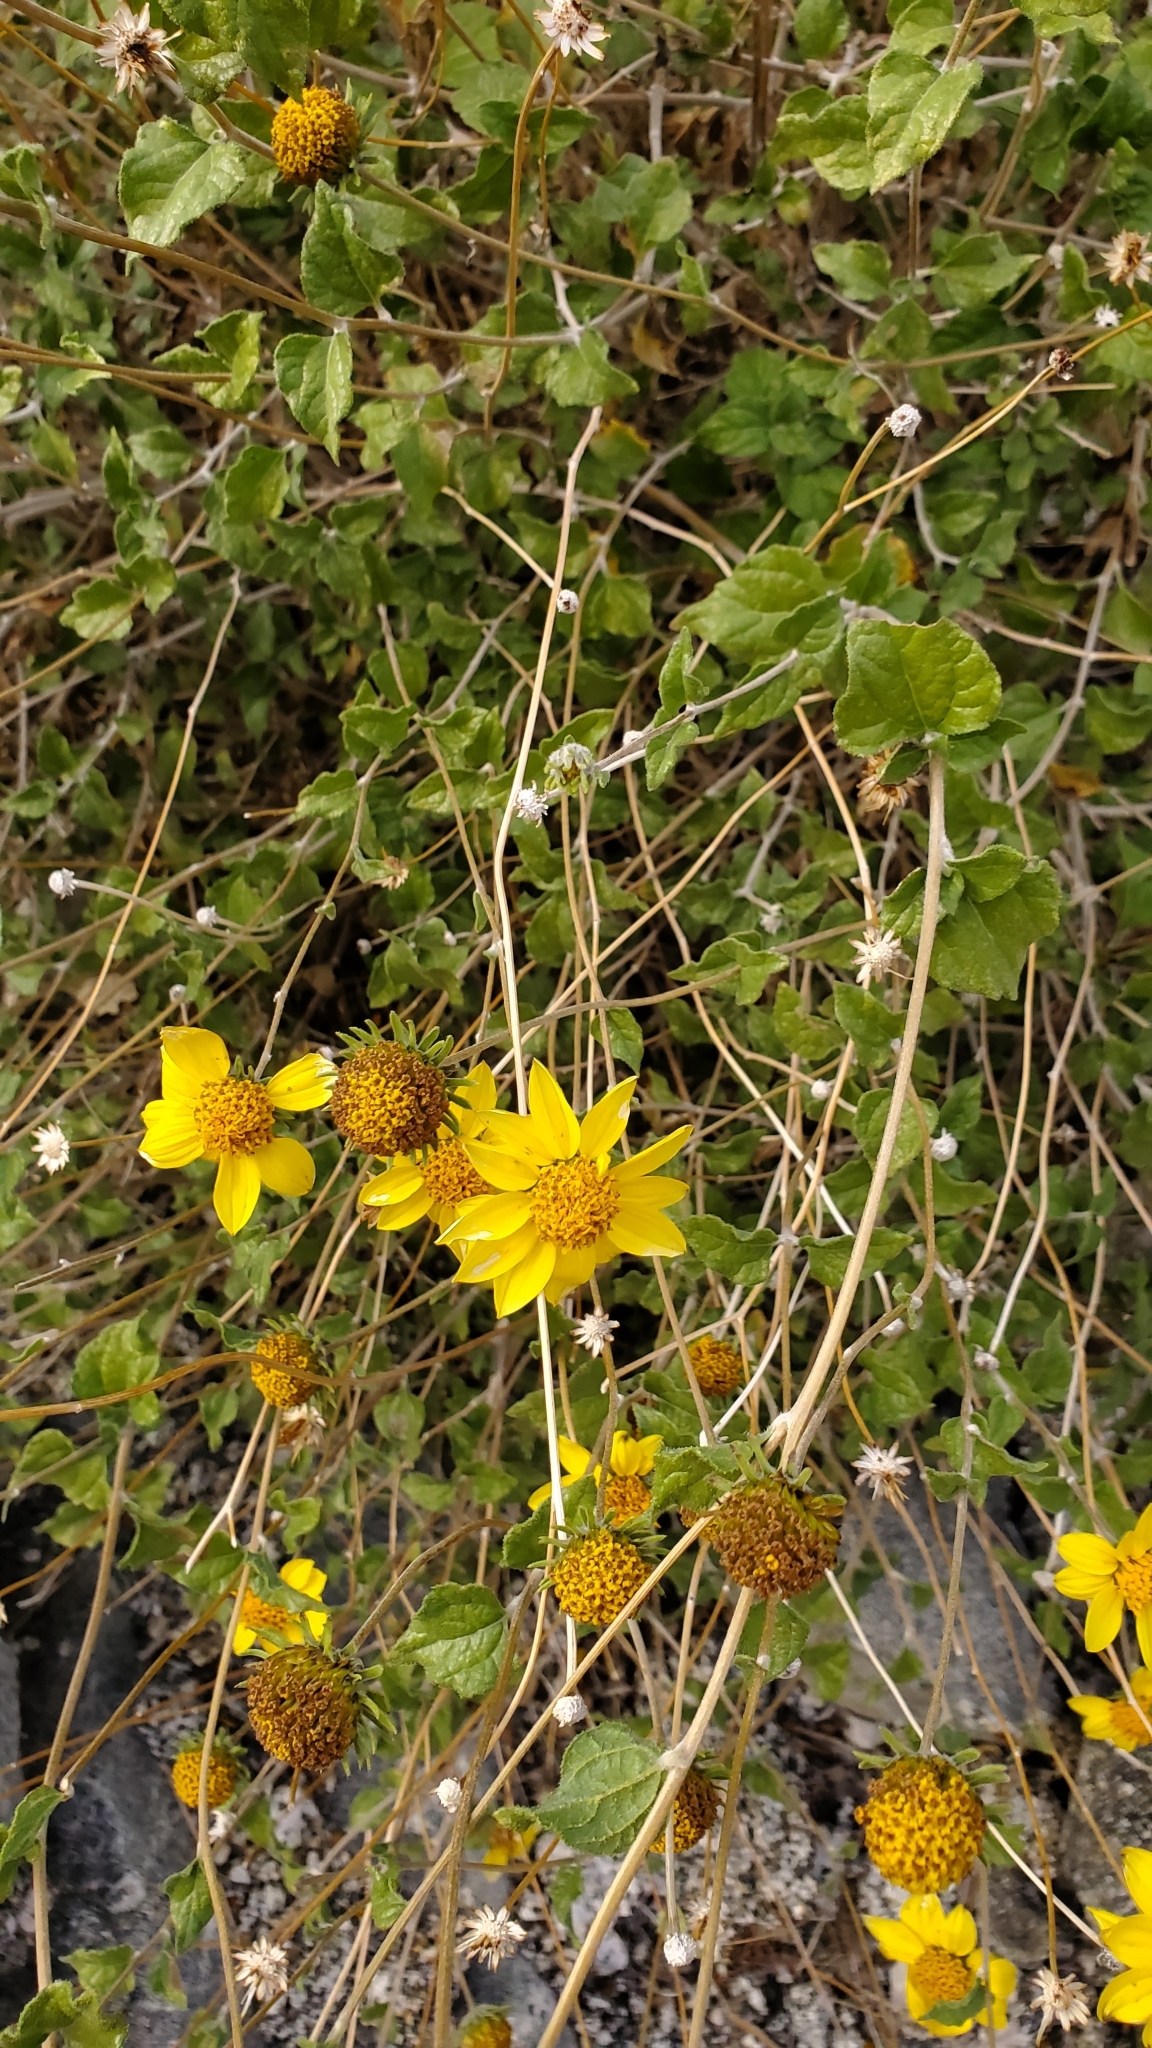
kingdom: Plantae
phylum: Tracheophyta
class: Magnoliopsida
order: Asterales
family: Asteraceae
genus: Bahiopsis
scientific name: Bahiopsis parishii
